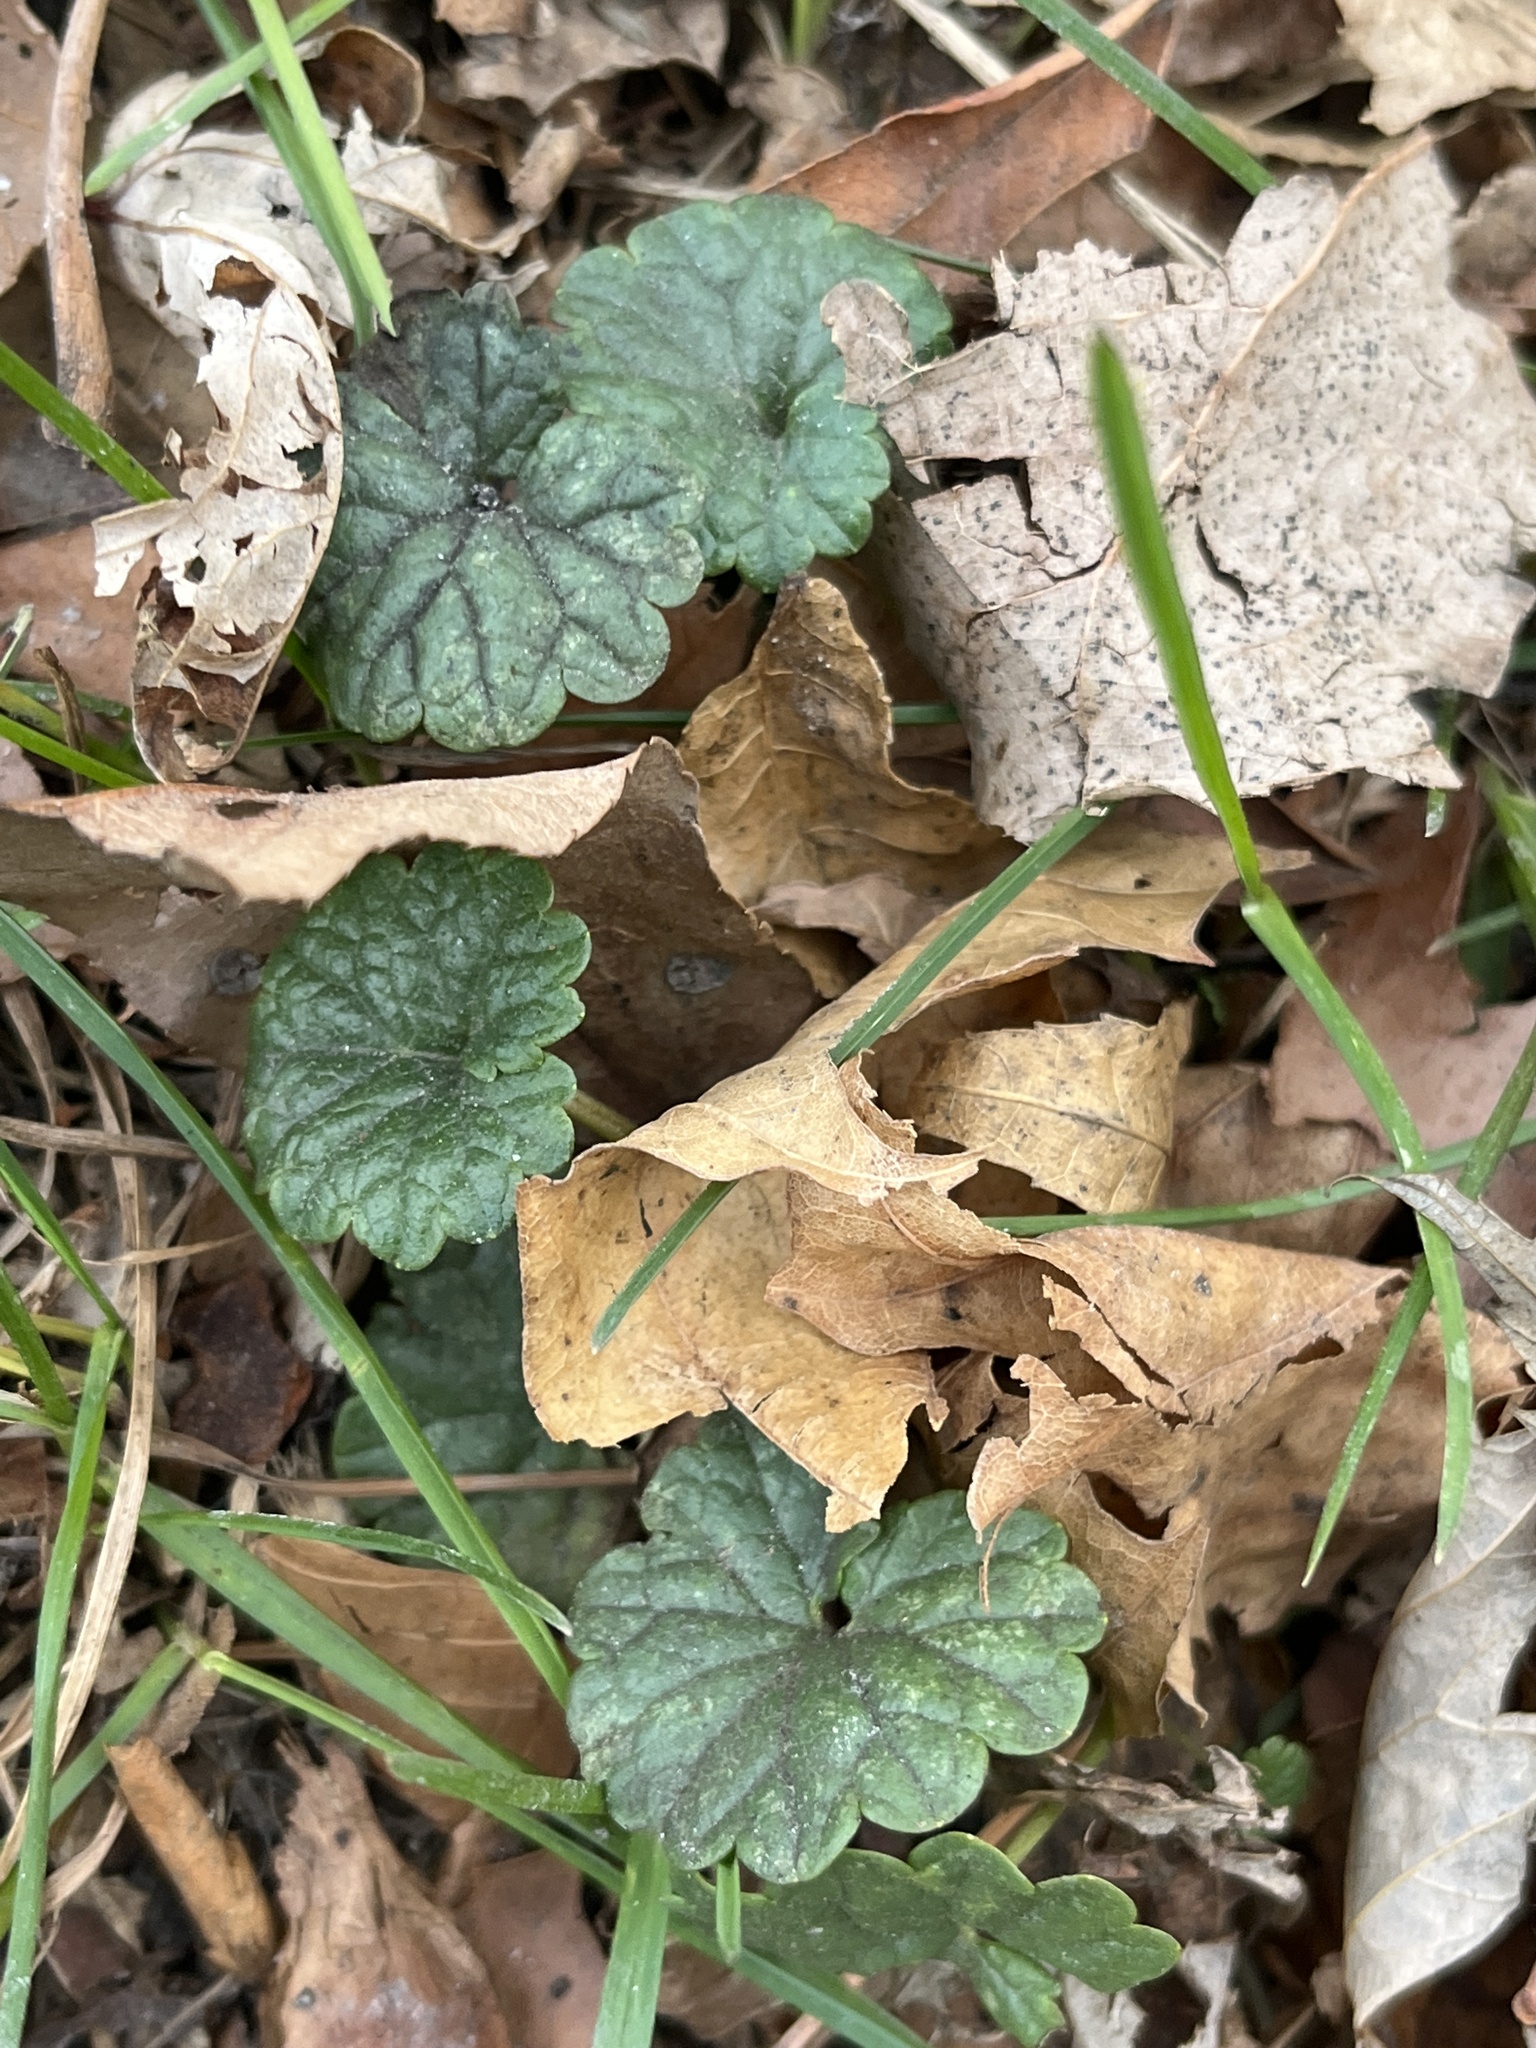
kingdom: Plantae
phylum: Tracheophyta
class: Magnoliopsida
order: Lamiales
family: Lamiaceae
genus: Glechoma
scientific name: Glechoma hederacea
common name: Ground ivy
